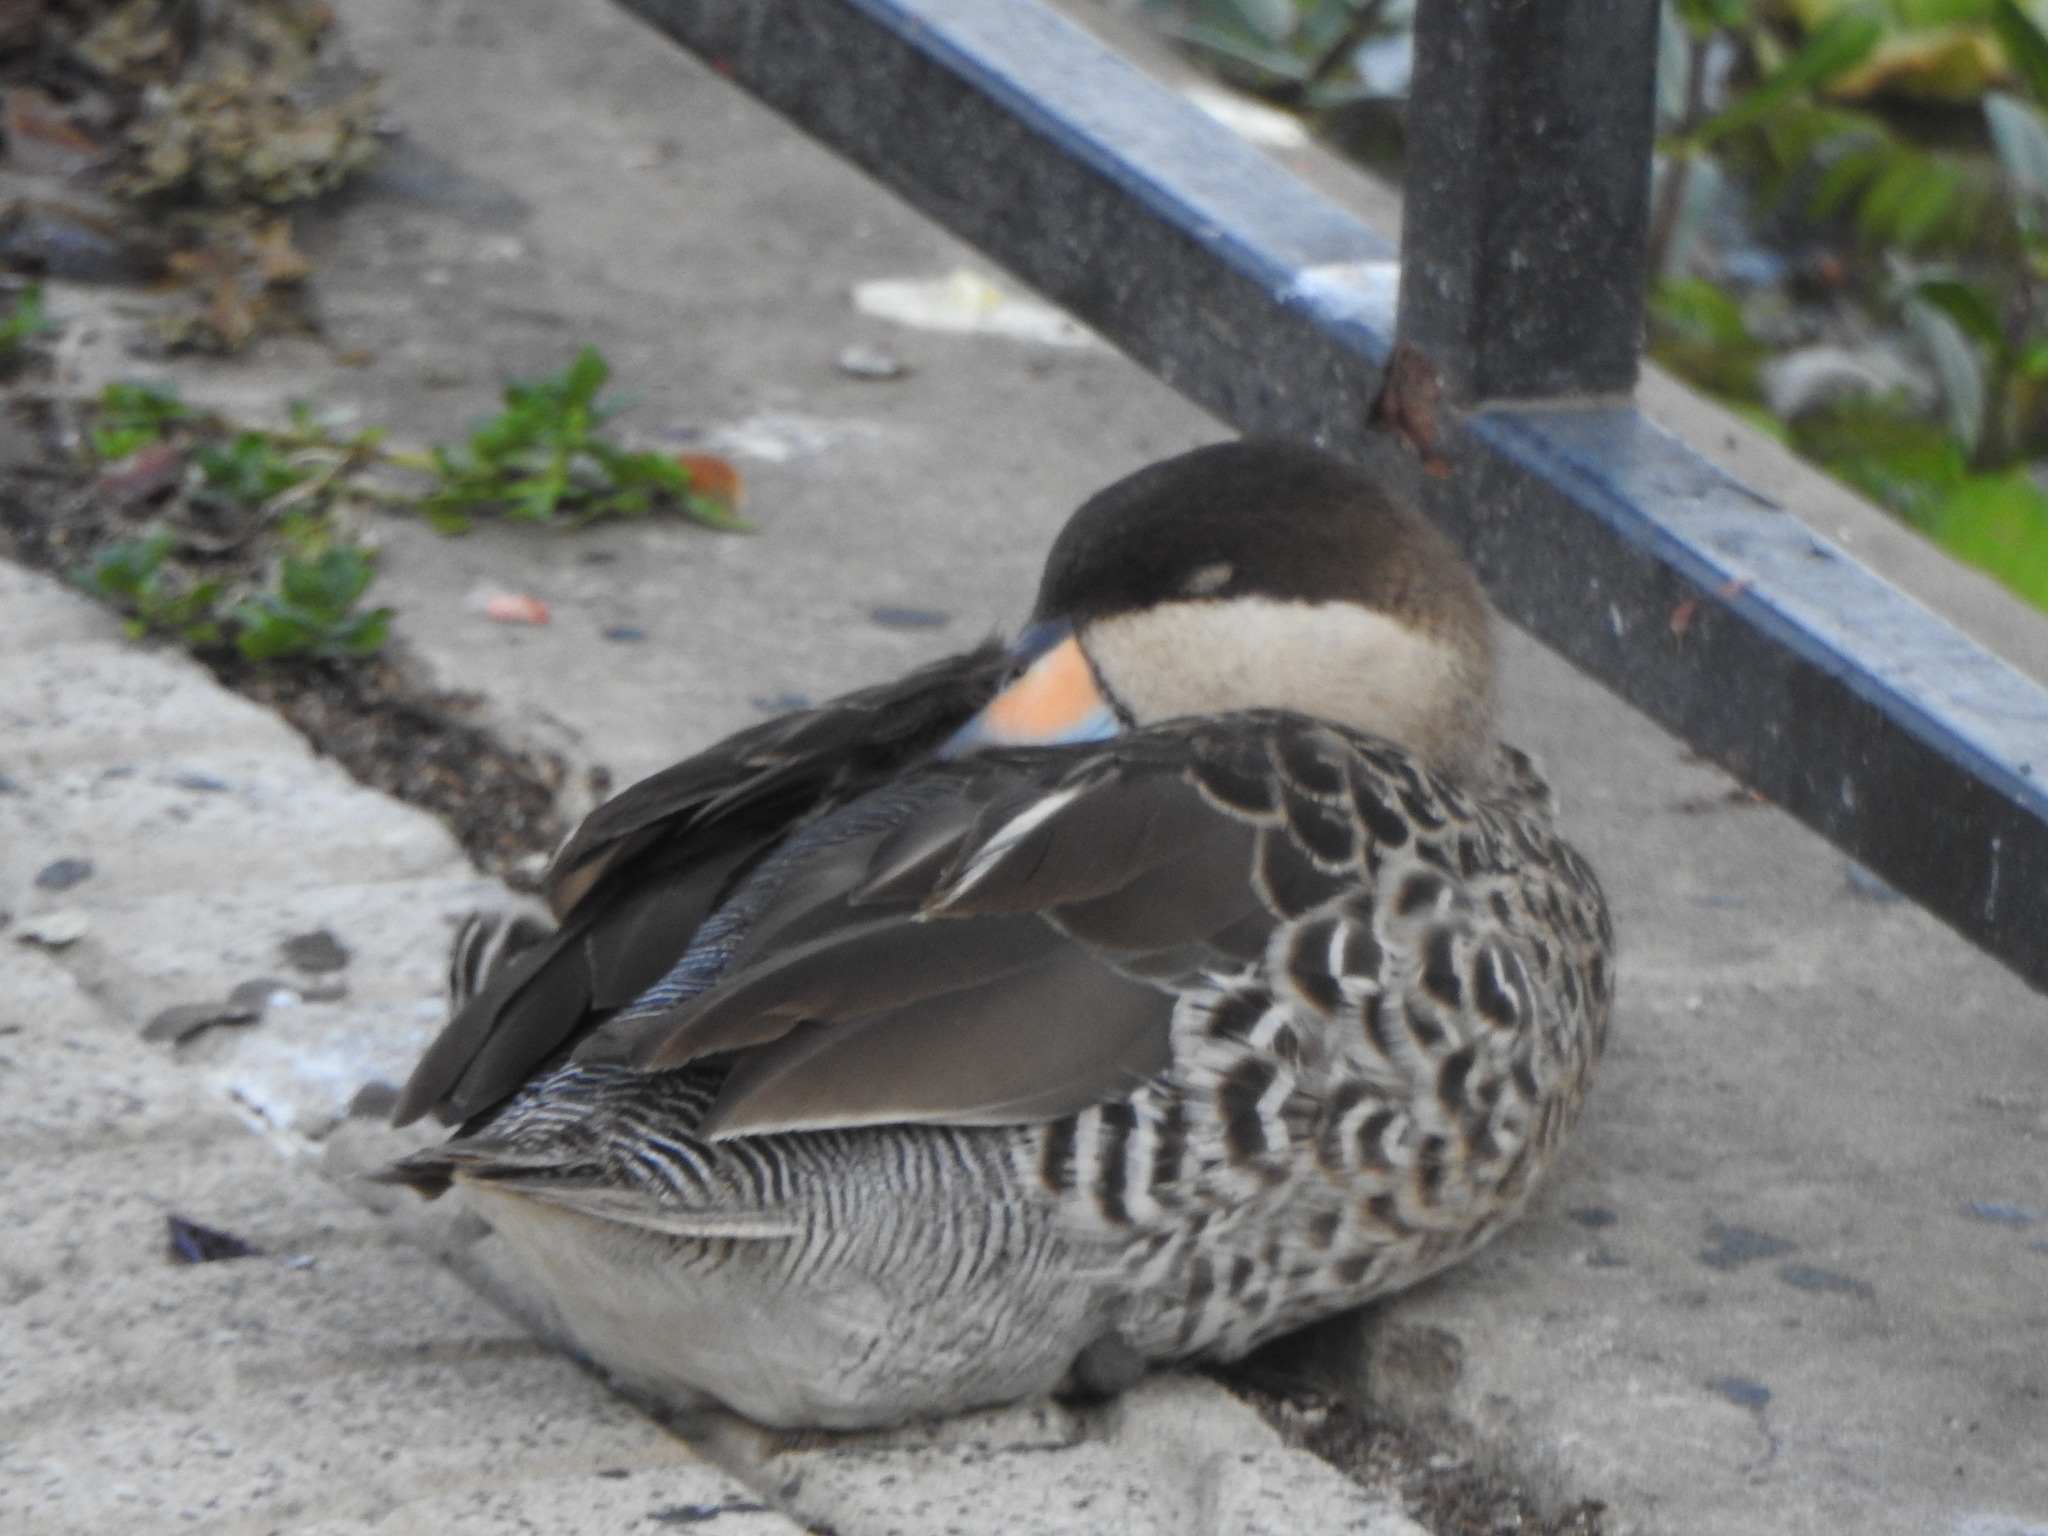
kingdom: Animalia
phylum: Chordata
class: Aves
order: Anseriformes
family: Anatidae
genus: Spatula
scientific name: Spatula versicolor
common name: Silver teal
